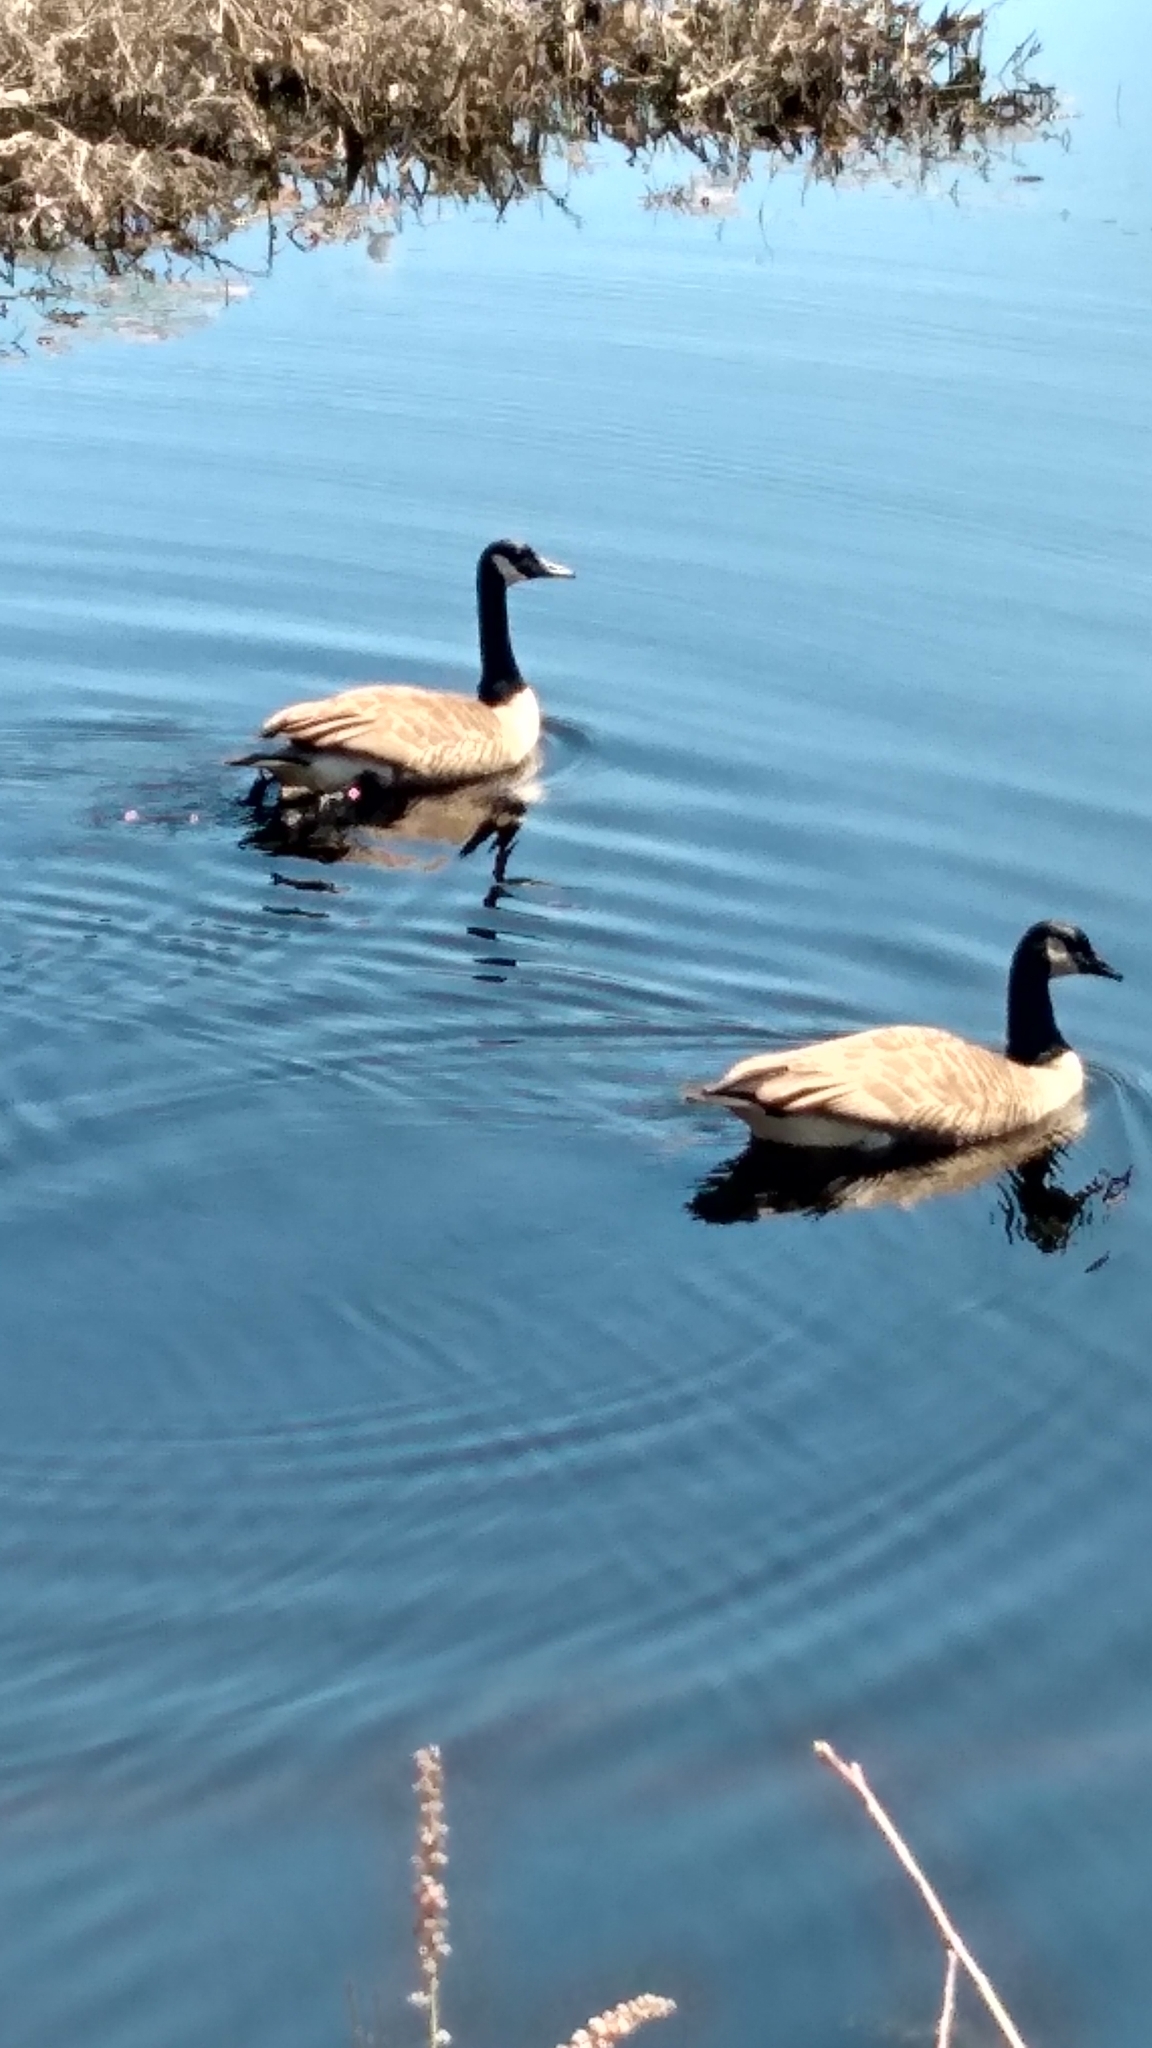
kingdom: Animalia
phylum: Chordata
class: Aves
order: Anseriformes
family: Anatidae
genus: Branta
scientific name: Branta canadensis
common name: Canada goose
